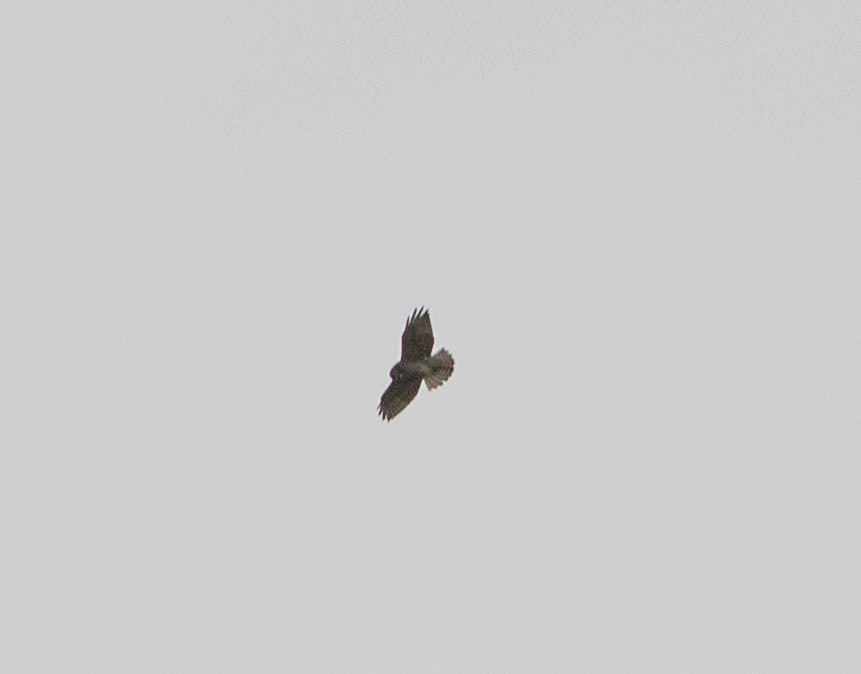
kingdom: Animalia
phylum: Chordata
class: Aves
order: Accipitriformes
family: Accipitridae
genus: Buteo
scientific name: Buteo jamaicensis
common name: Red-tailed hawk
